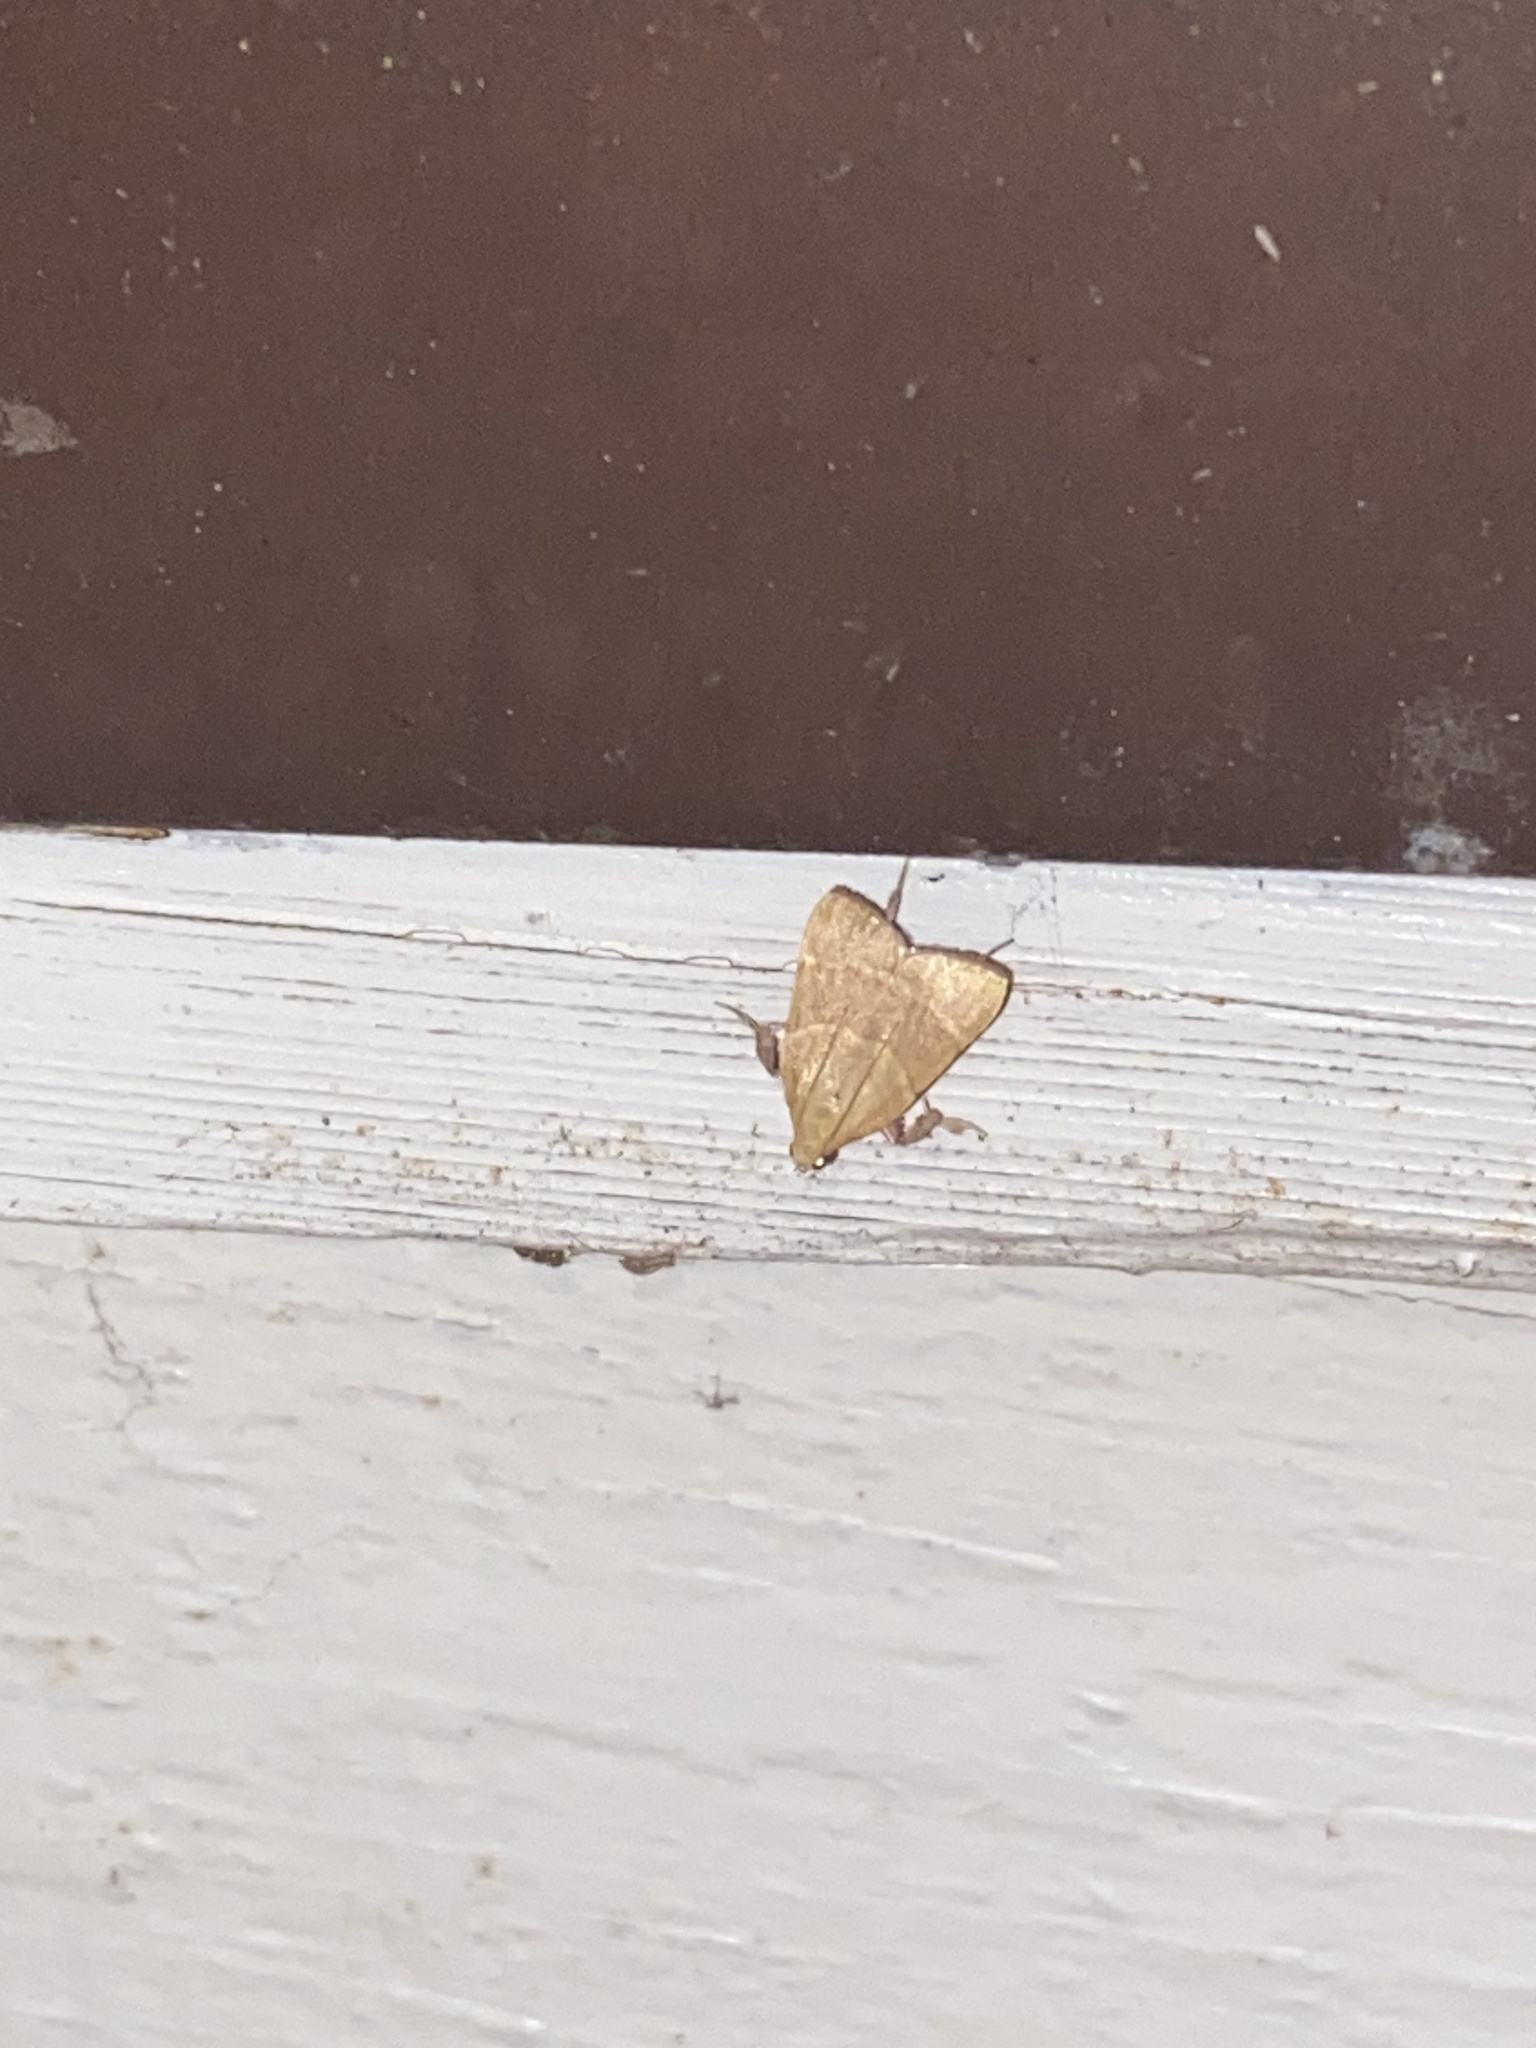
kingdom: Animalia
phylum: Arthropoda
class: Insecta
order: Lepidoptera
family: Pyralidae
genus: Parachma
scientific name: Parachma ochracealis
